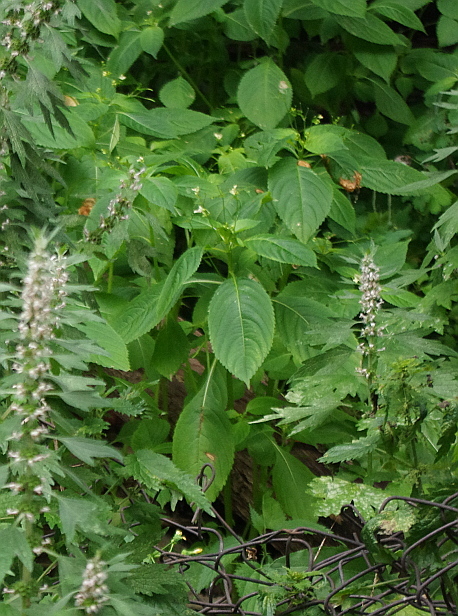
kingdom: Plantae
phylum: Tracheophyta
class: Magnoliopsida
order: Ericales
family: Balsaminaceae
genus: Impatiens
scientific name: Impatiens parviflora
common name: Small balsam
